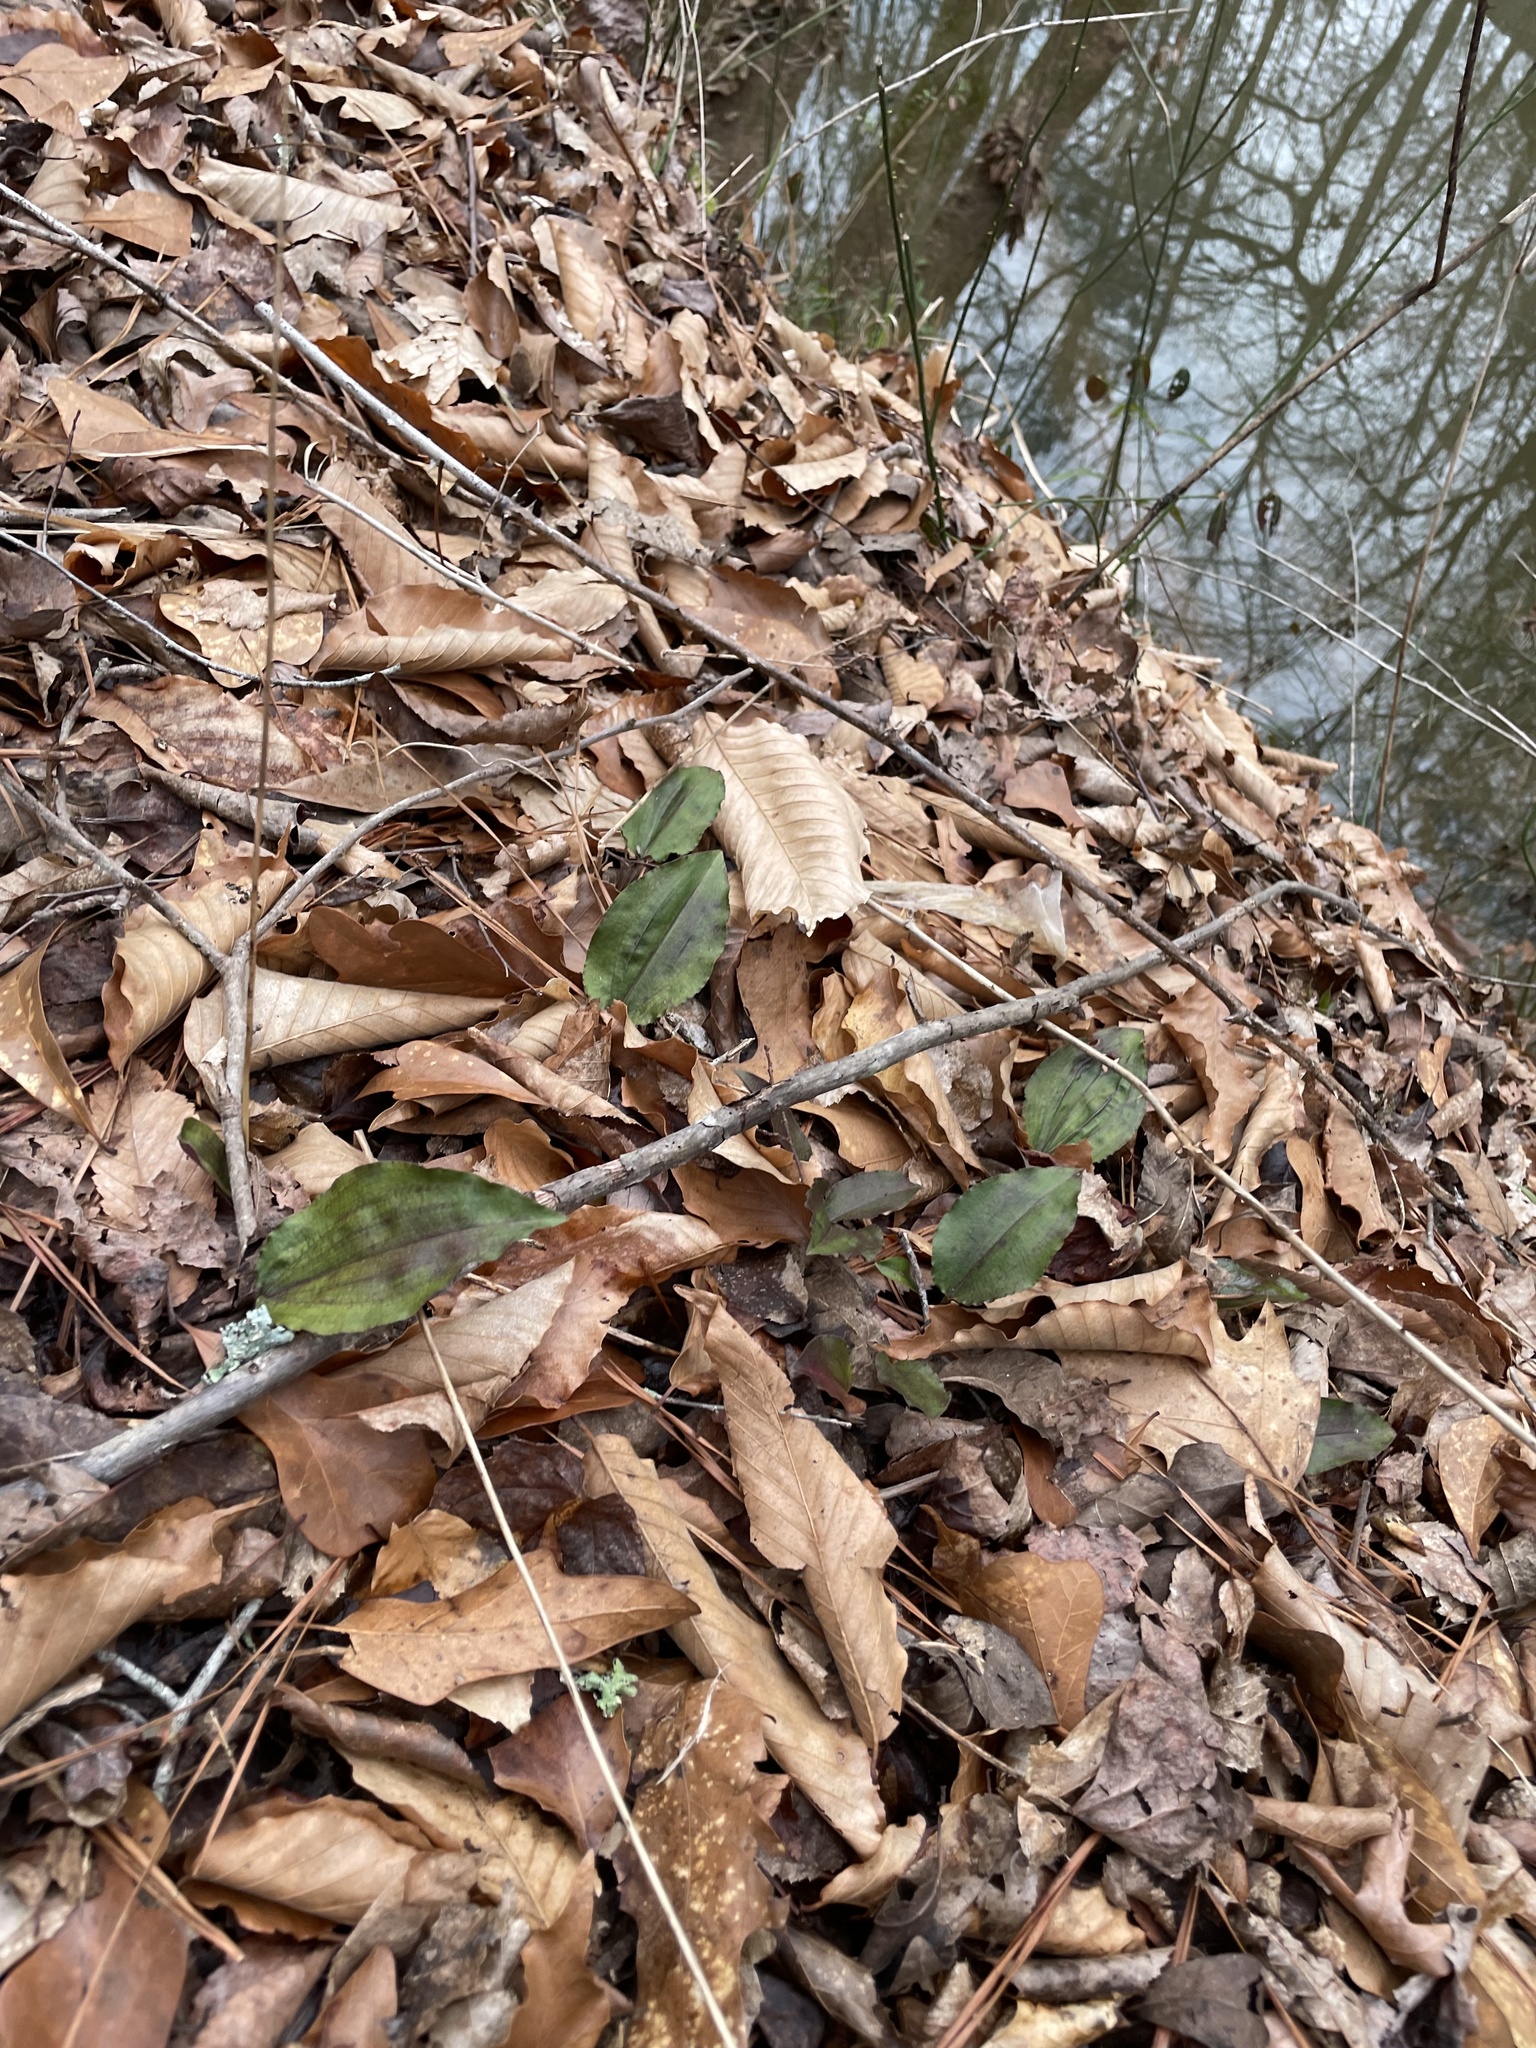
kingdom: Plantae
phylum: Tracheophyta
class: Liliopsida
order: Asparagales
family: Orchidaceae
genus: Tipularia
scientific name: Tipularia discolor
